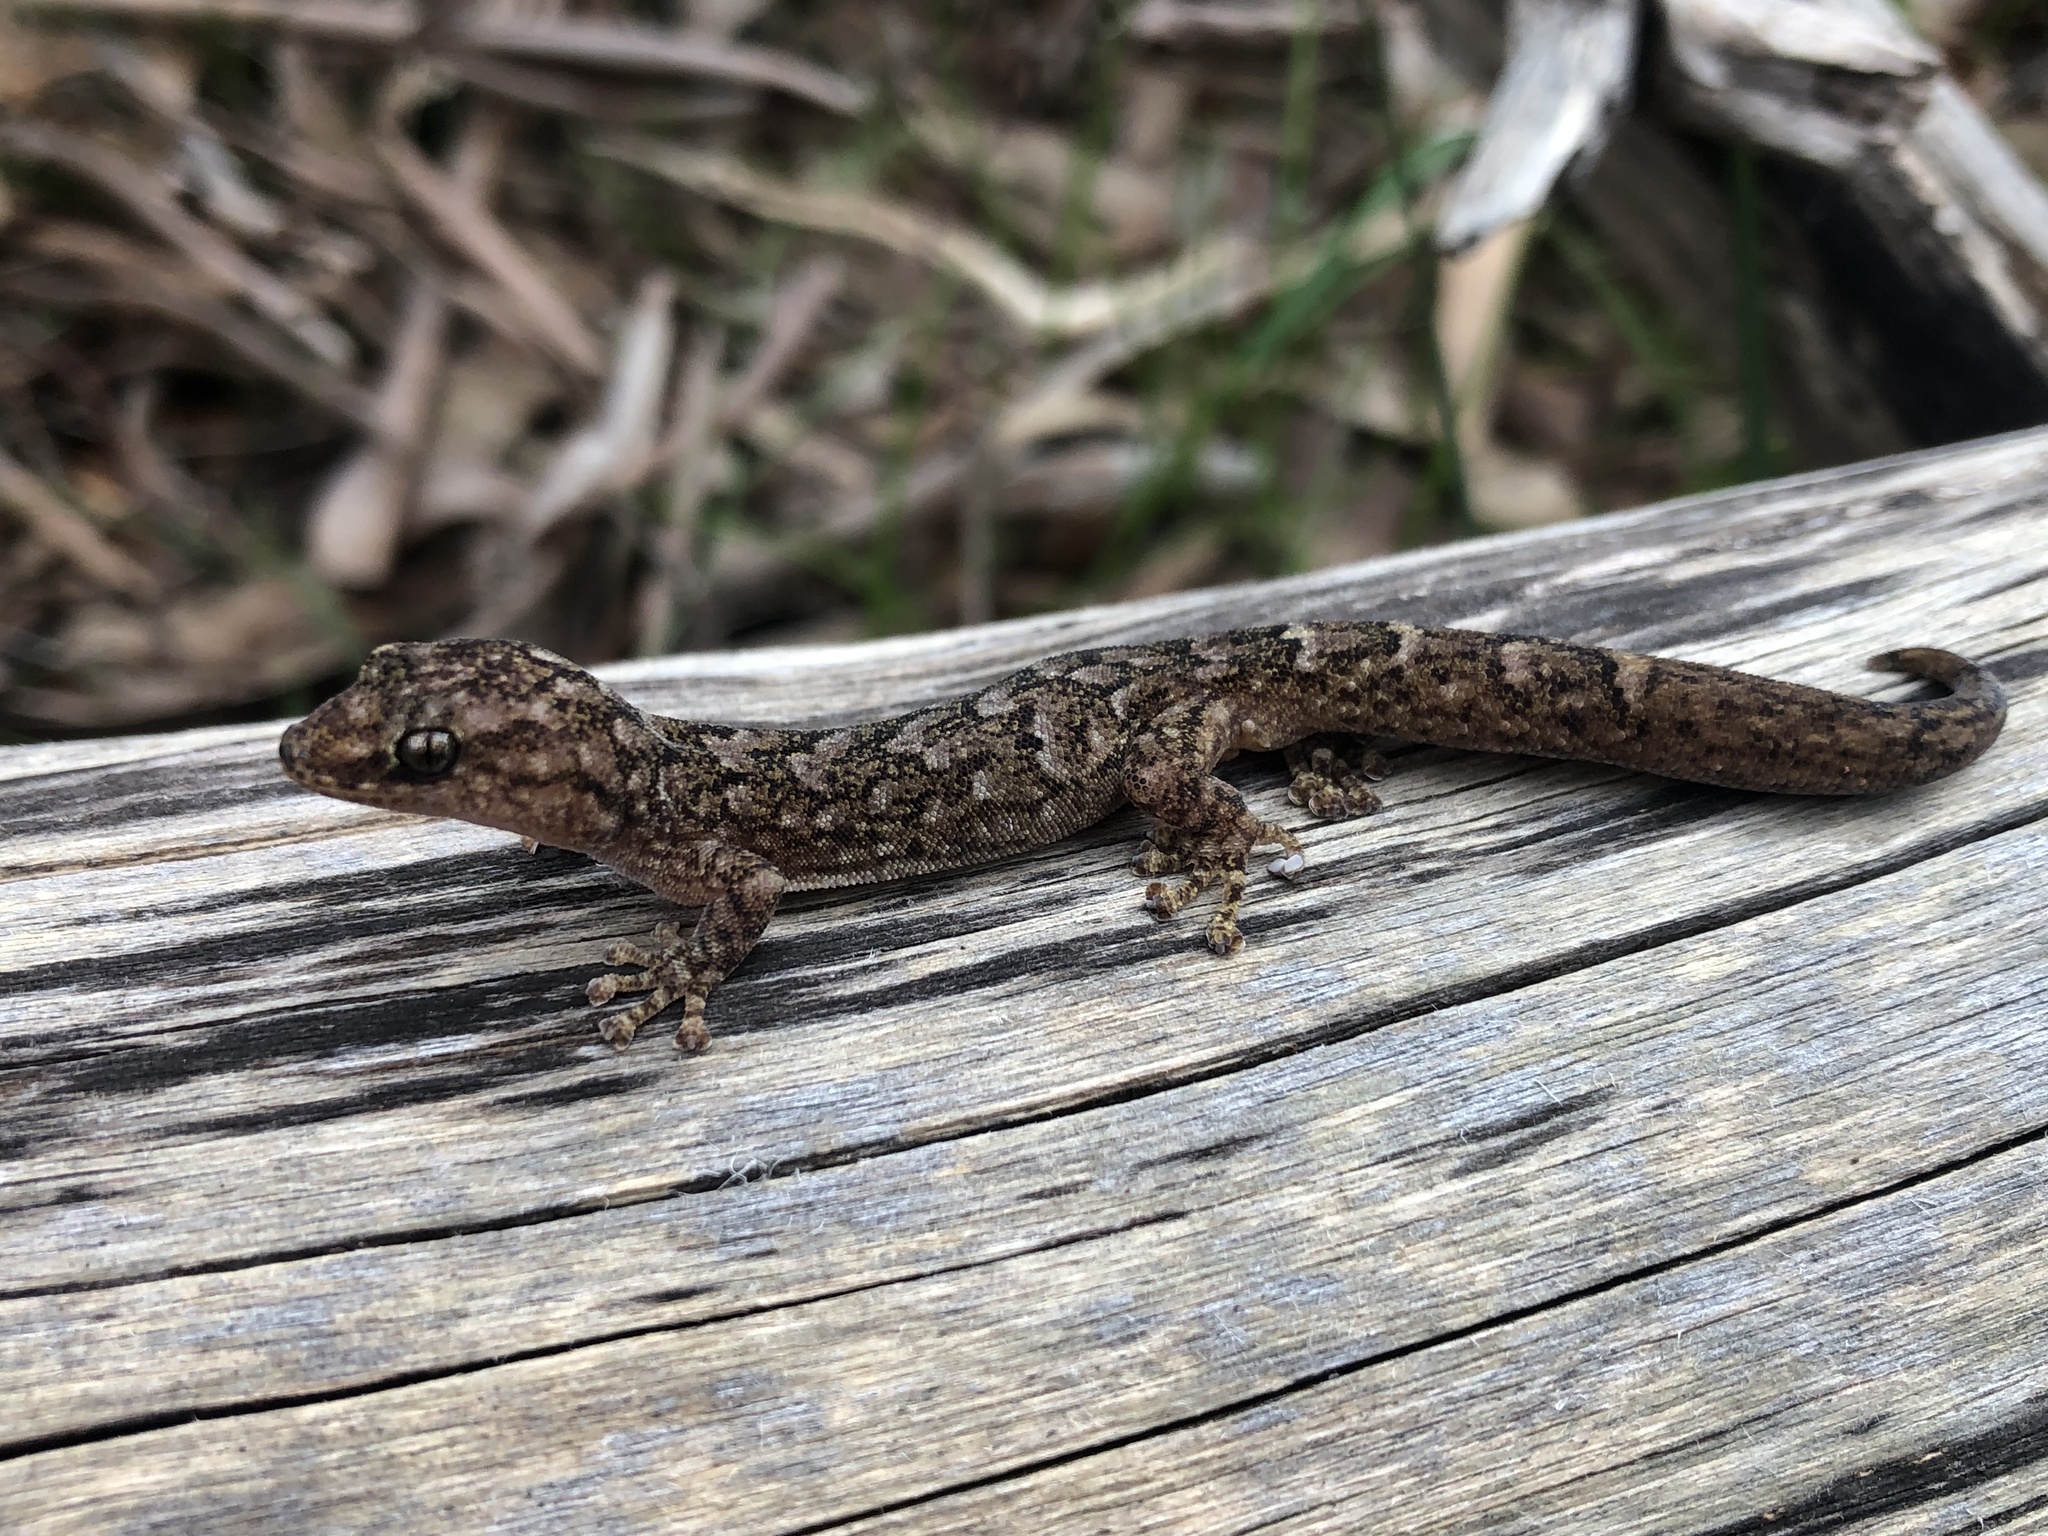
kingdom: Animalia
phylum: Chordata
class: Squamata
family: Gekkonidae
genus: Christinus
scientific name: Christinus marmoratus
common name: Marbled gecko
